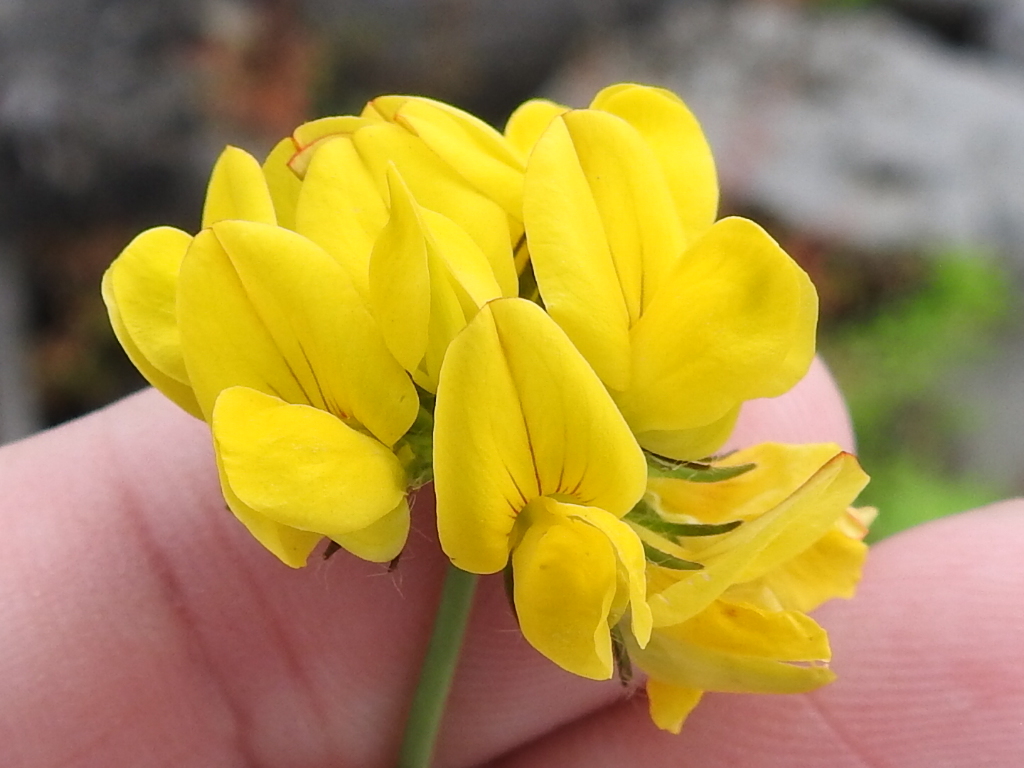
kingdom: Plantae
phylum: Tracheophyta
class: Magnoliopsida
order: Fabales
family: Fabaceae
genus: Lotus
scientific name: Lotus pedunculatus
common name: Greater birdsfoot-trefoil
